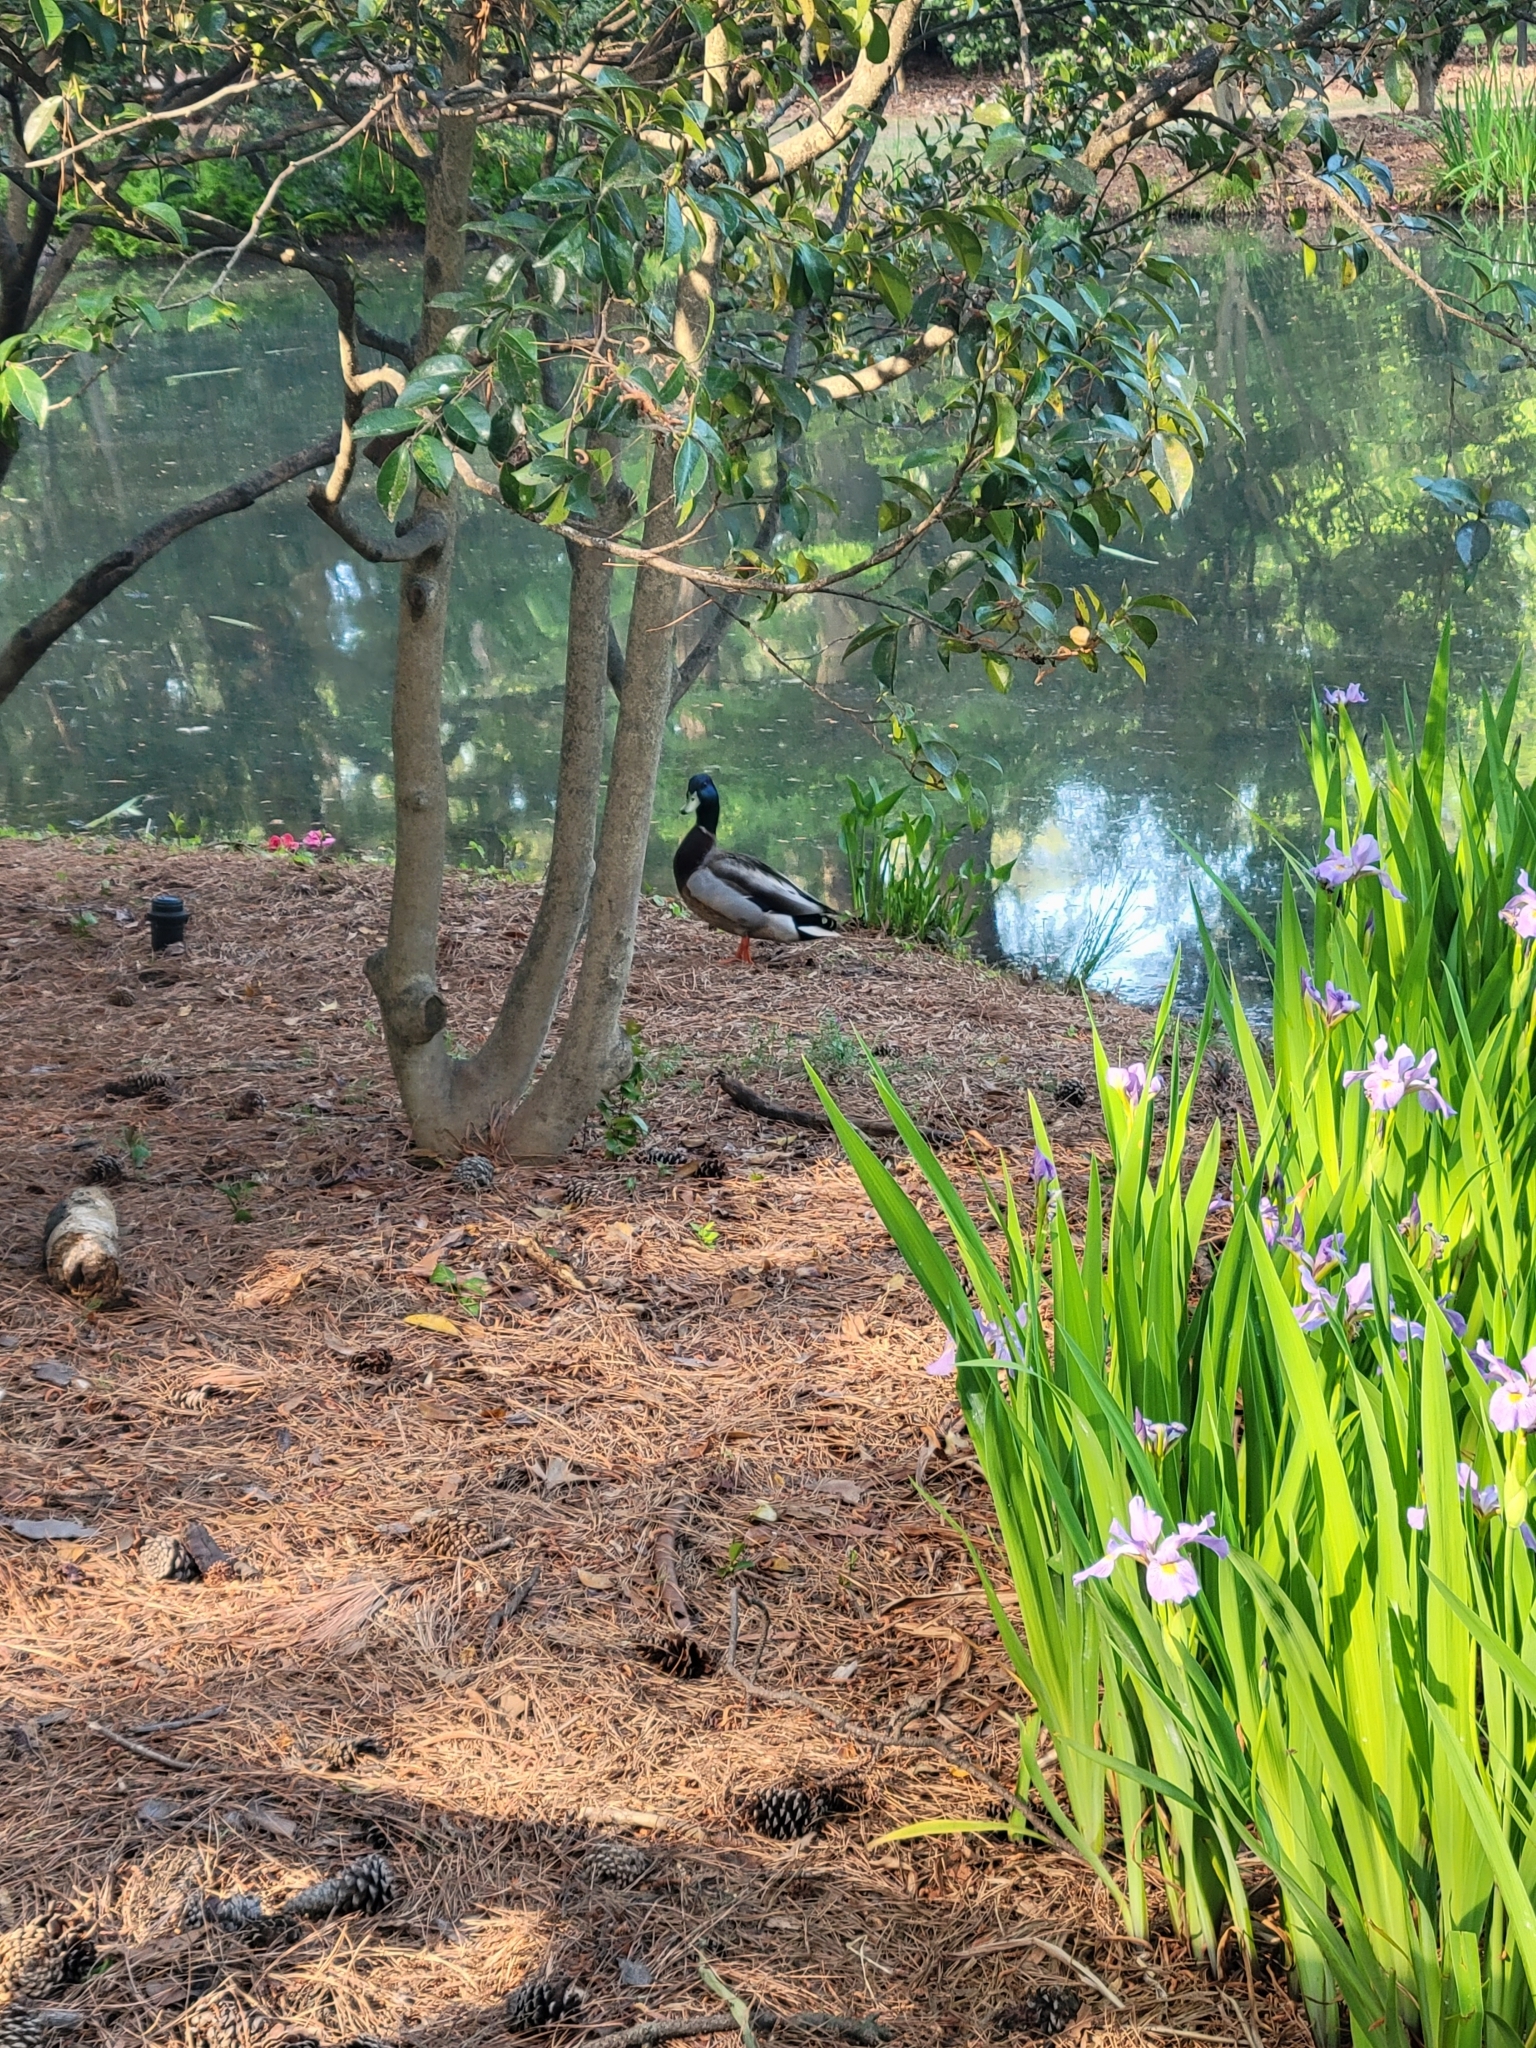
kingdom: Animalia
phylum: Chordata
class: Aves
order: Anseriformes
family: Anatidae
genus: Anas
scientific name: Anas platyrhynchos
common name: Mallard
